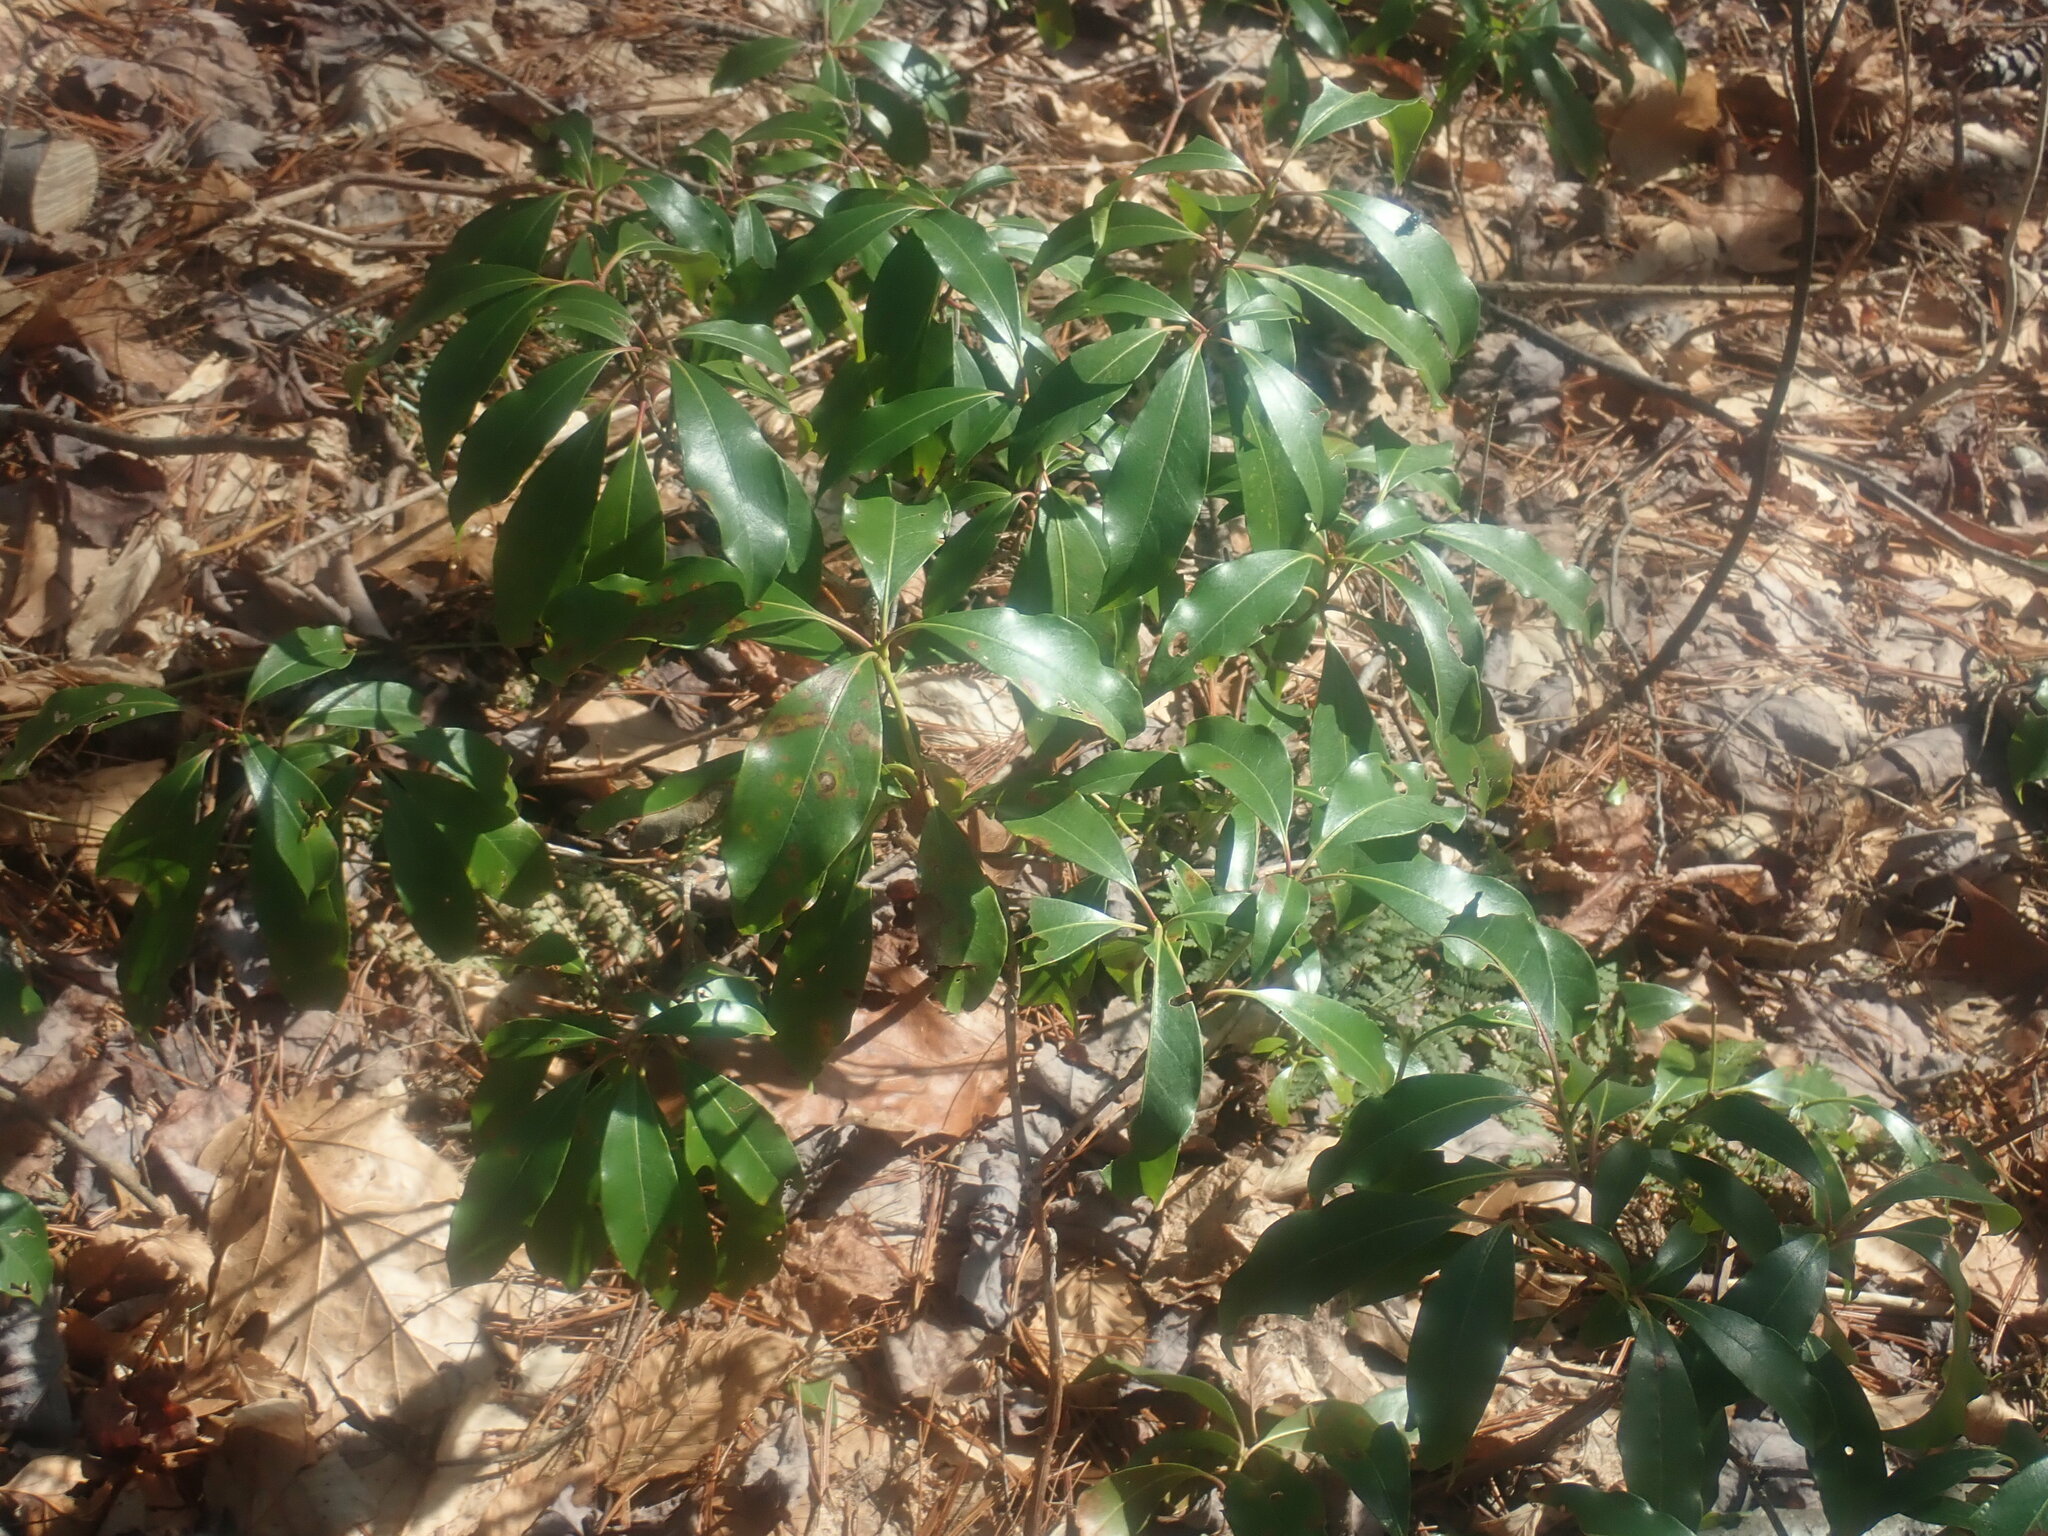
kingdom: Plantae
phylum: Tracheophyta
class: Magnoliopsida
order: Ericales
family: Ericaceae
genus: Kalmia
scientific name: Kalmia latifolia
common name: Mountain-laurel
